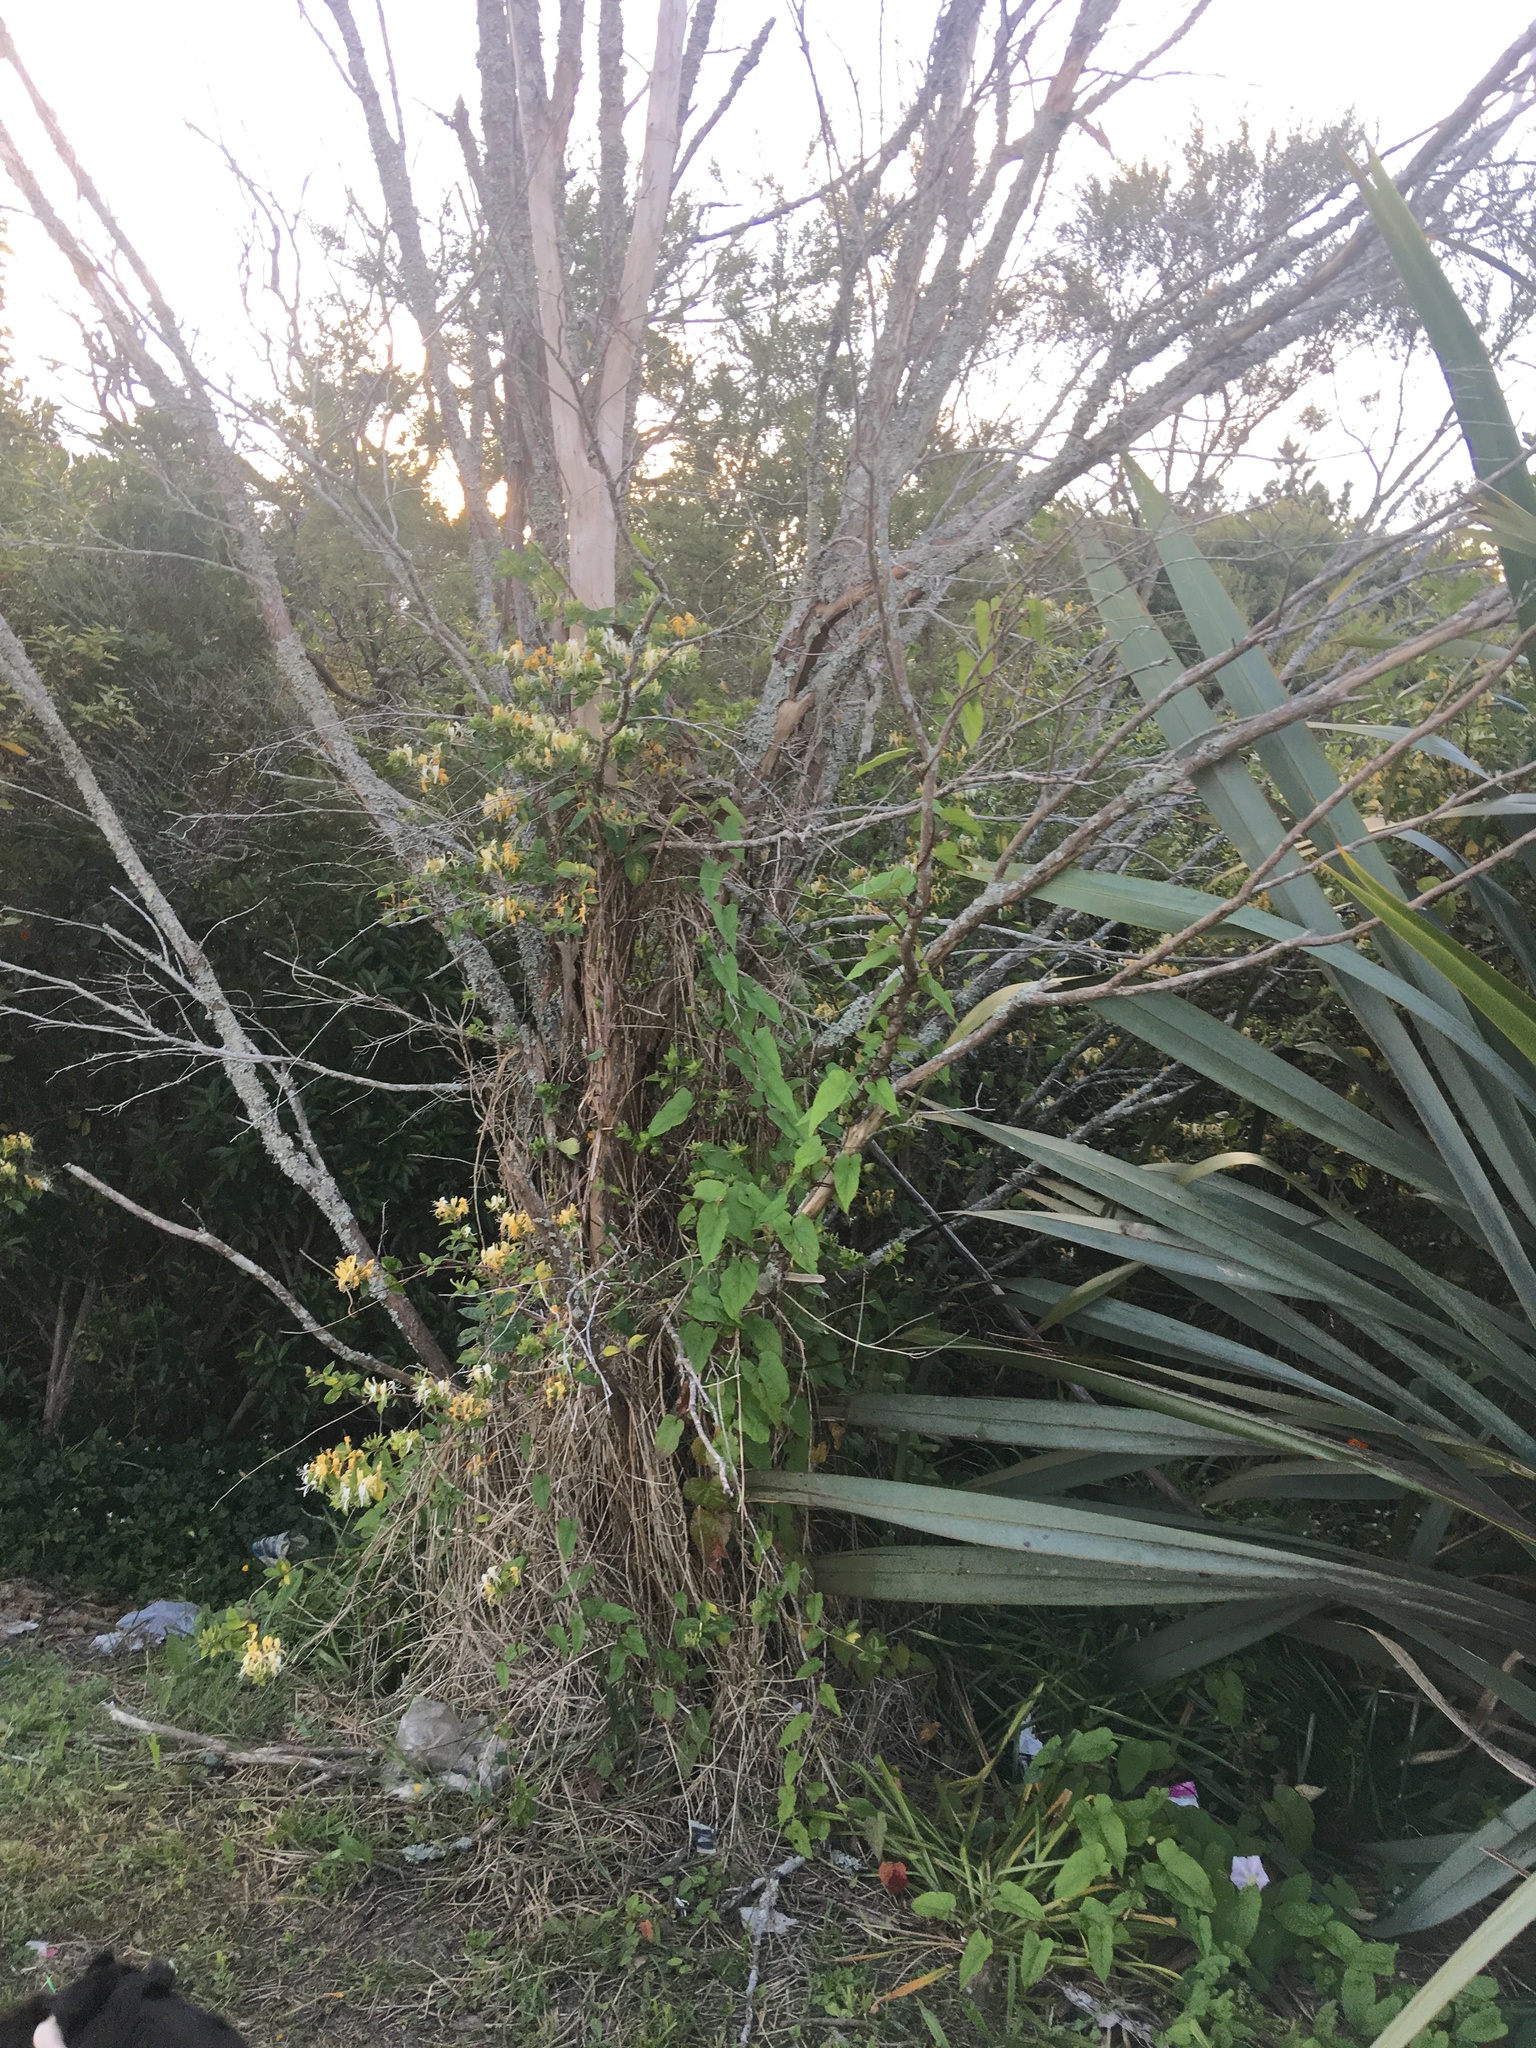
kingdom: Plantae
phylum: Tracheophyta
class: Magnoliopsida
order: Dipsacales
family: Caprifoliaceae
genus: Lonicera
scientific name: Lonicera japonica
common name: Japanese honeysuckle
